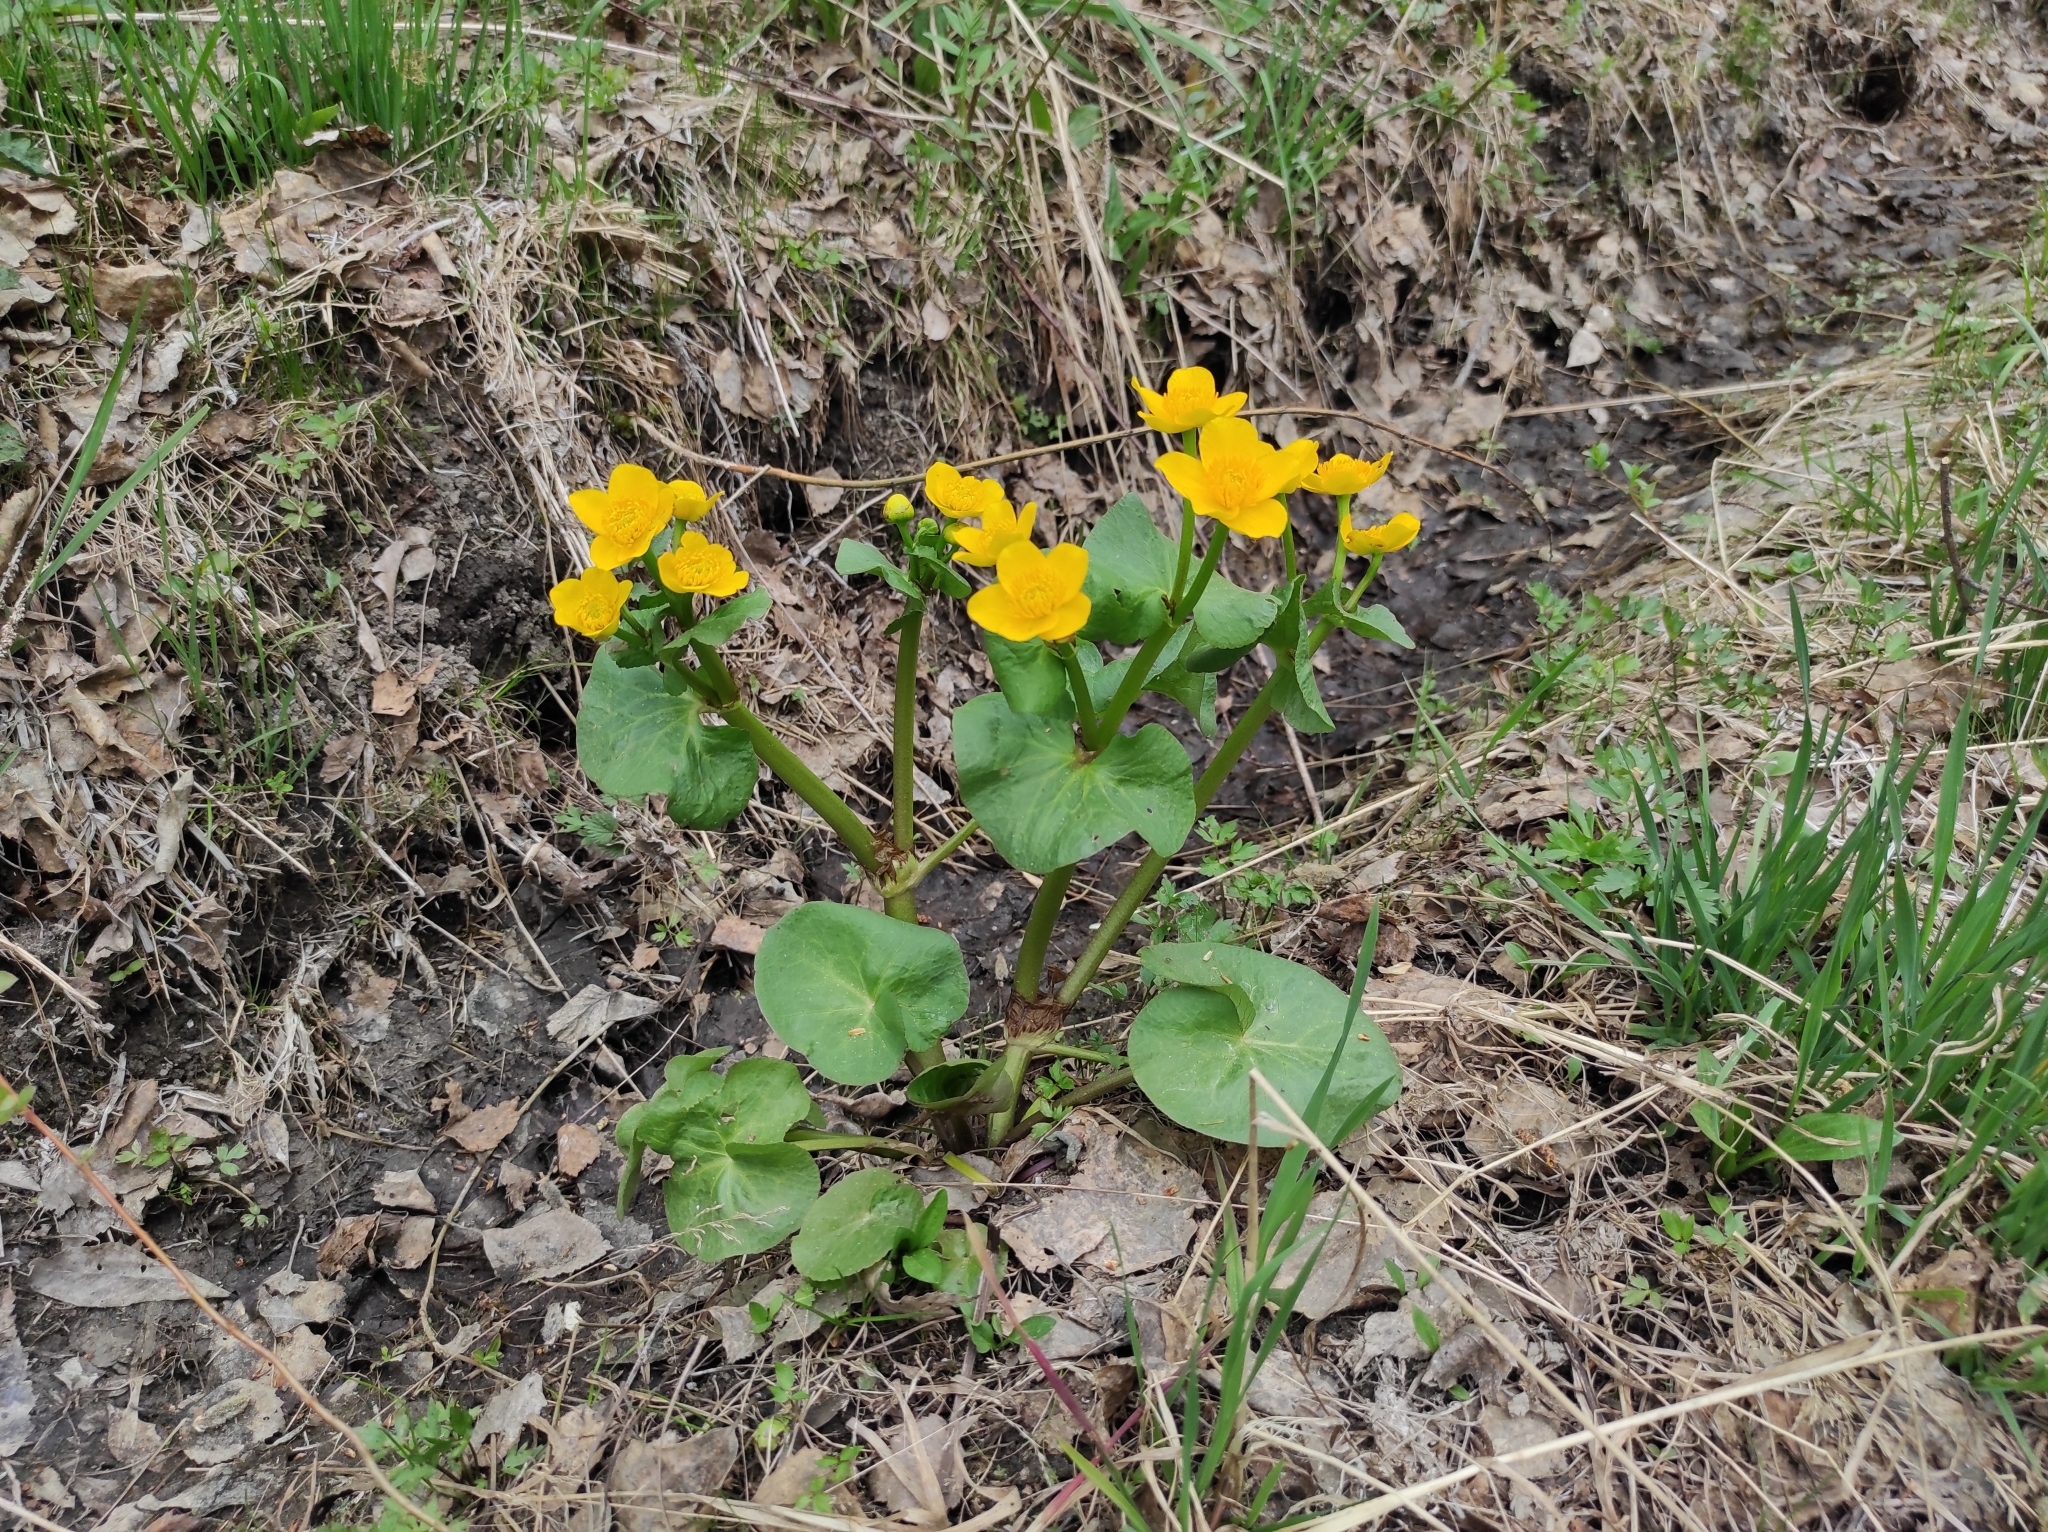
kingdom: Plantae
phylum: Tracheophyta
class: Magnoliopsida
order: Ranunculales
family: Ranunculaceae
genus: Caltha
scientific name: Caltha palustris
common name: Marsh marigold
